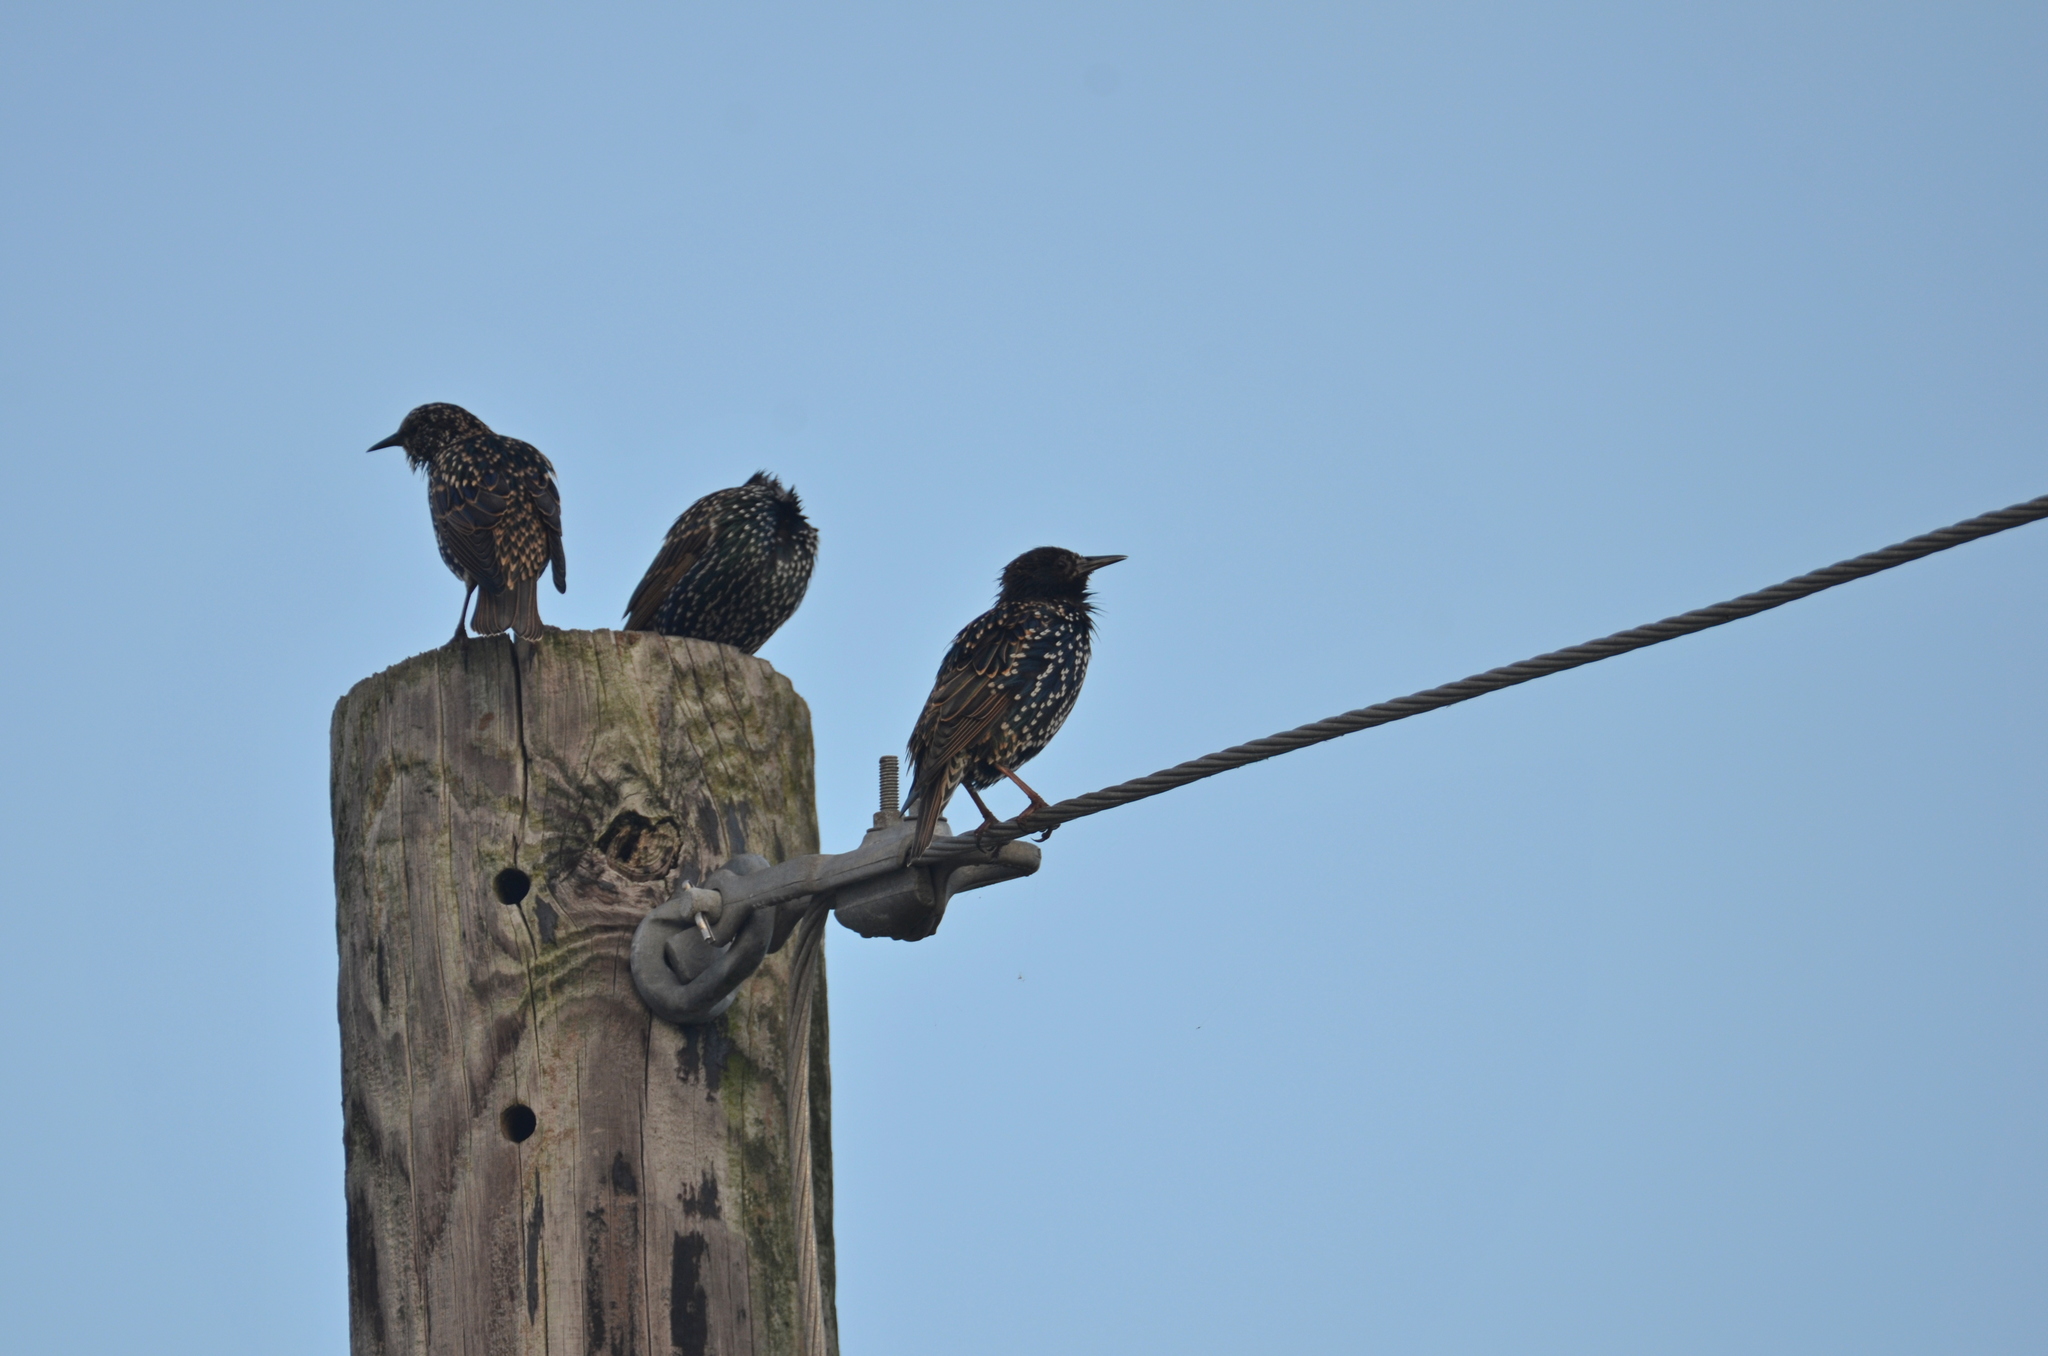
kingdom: Animalia
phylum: Chordata
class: Aves
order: Passeriformes
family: Sturnidae
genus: Sturnus
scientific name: Sturnus vulgaris
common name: Common starling
